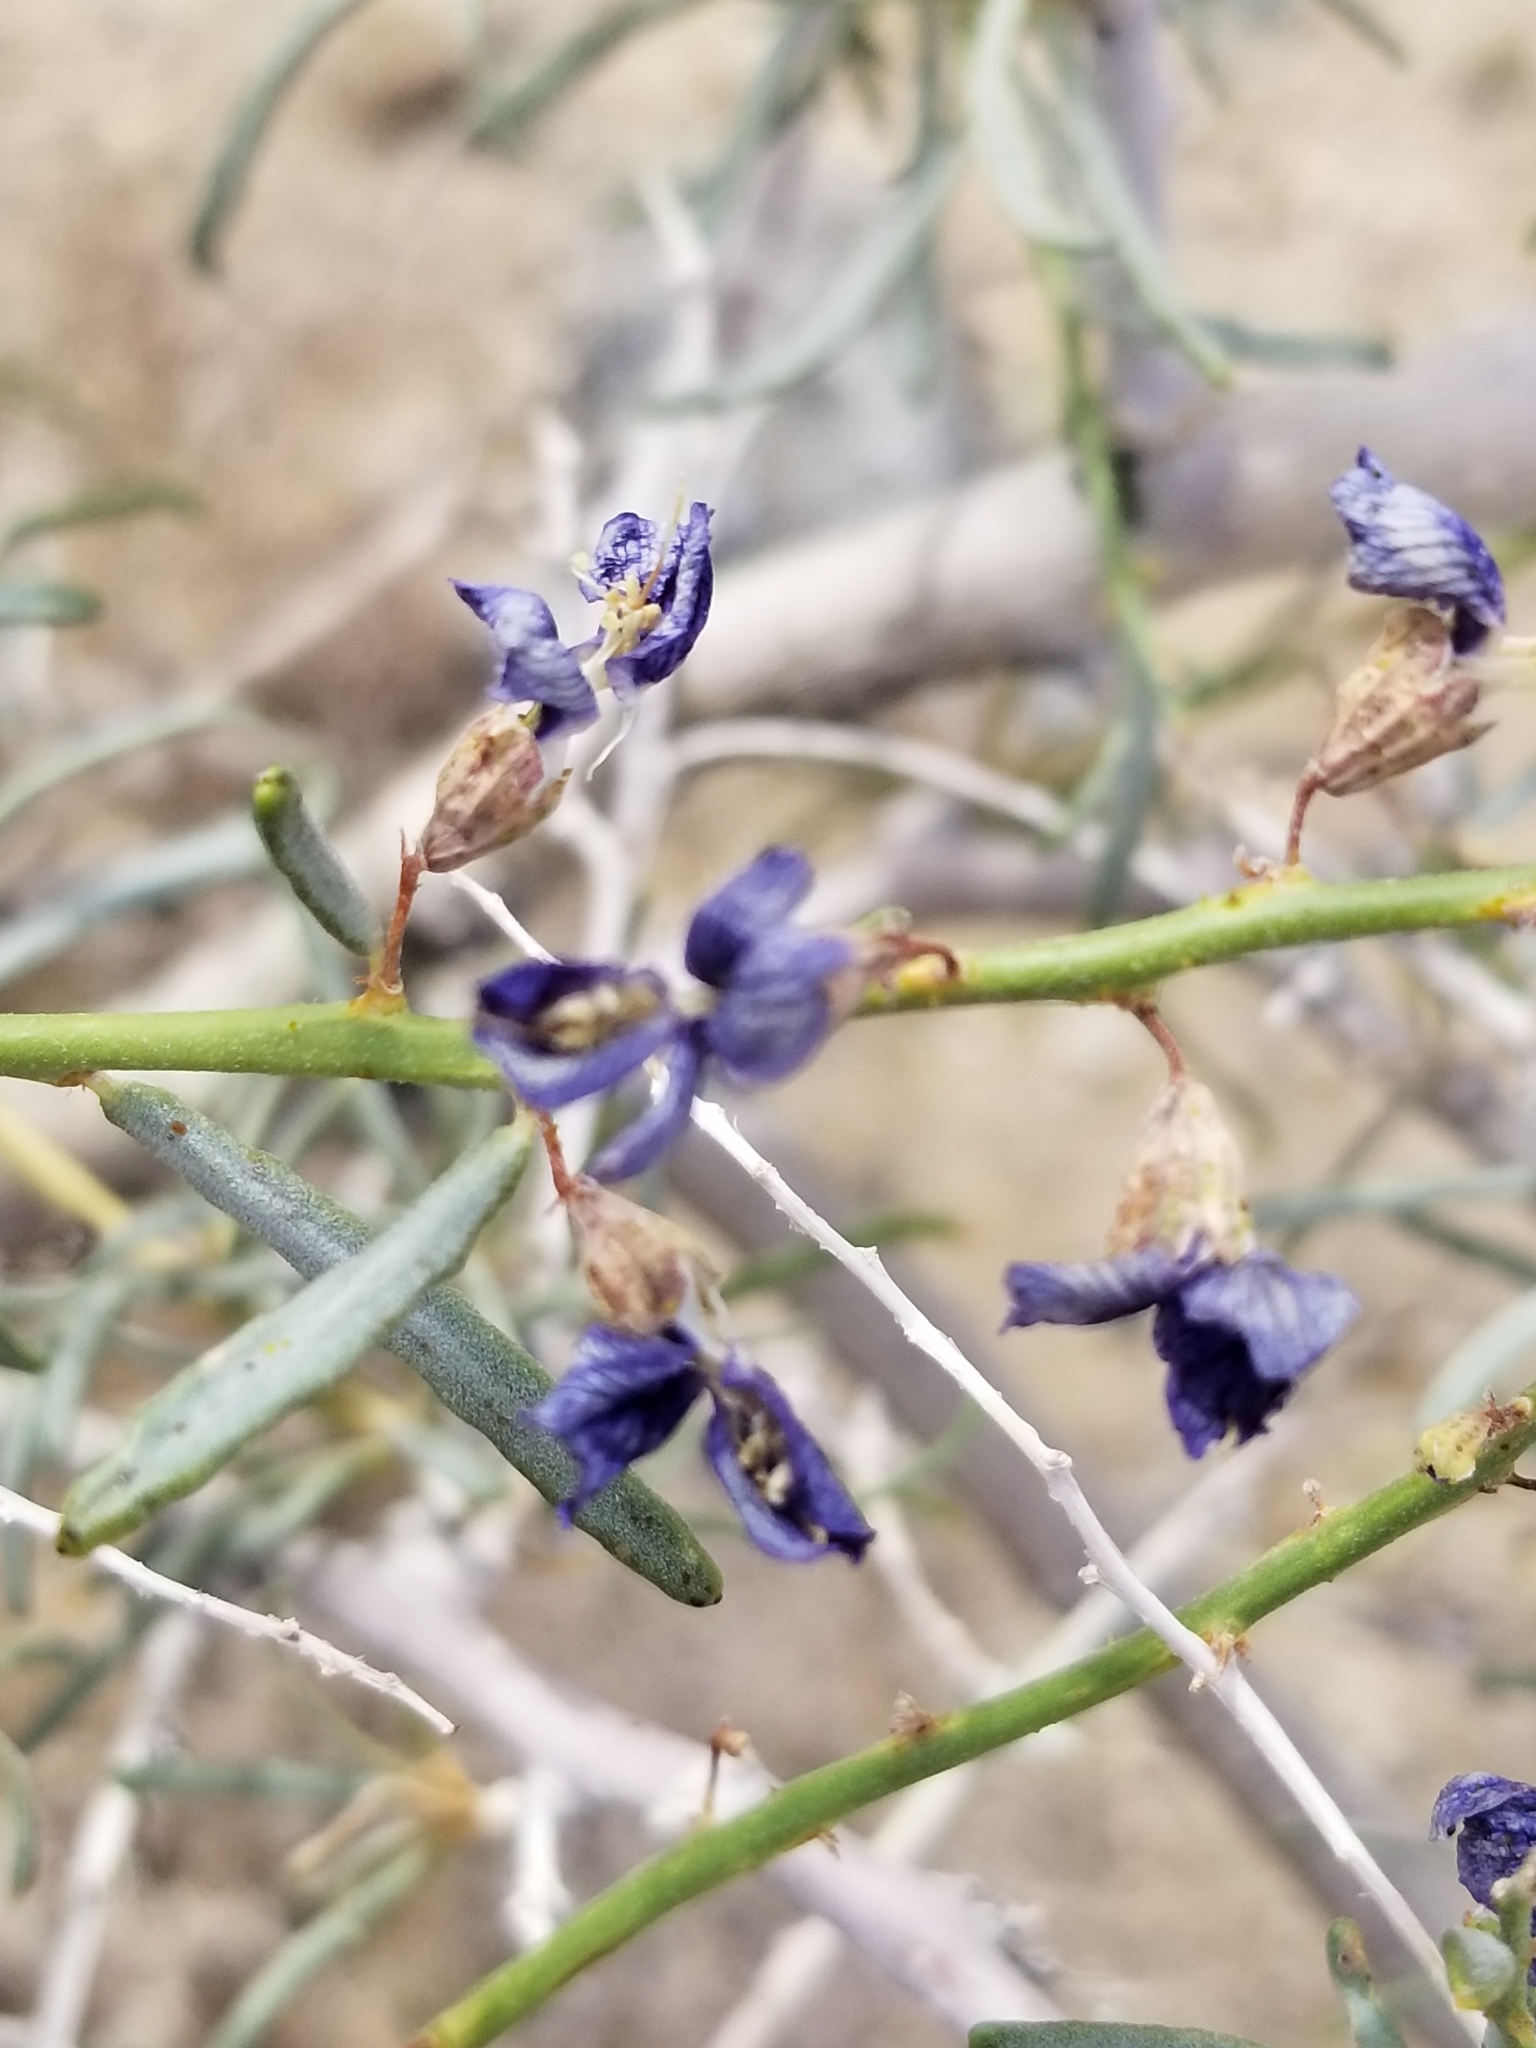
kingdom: Plantae
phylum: Tracheophyta
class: Magnoliopsida
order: Fabales
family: Fabaceae
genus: Psorothamnus
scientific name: Psorothamnus schottii
